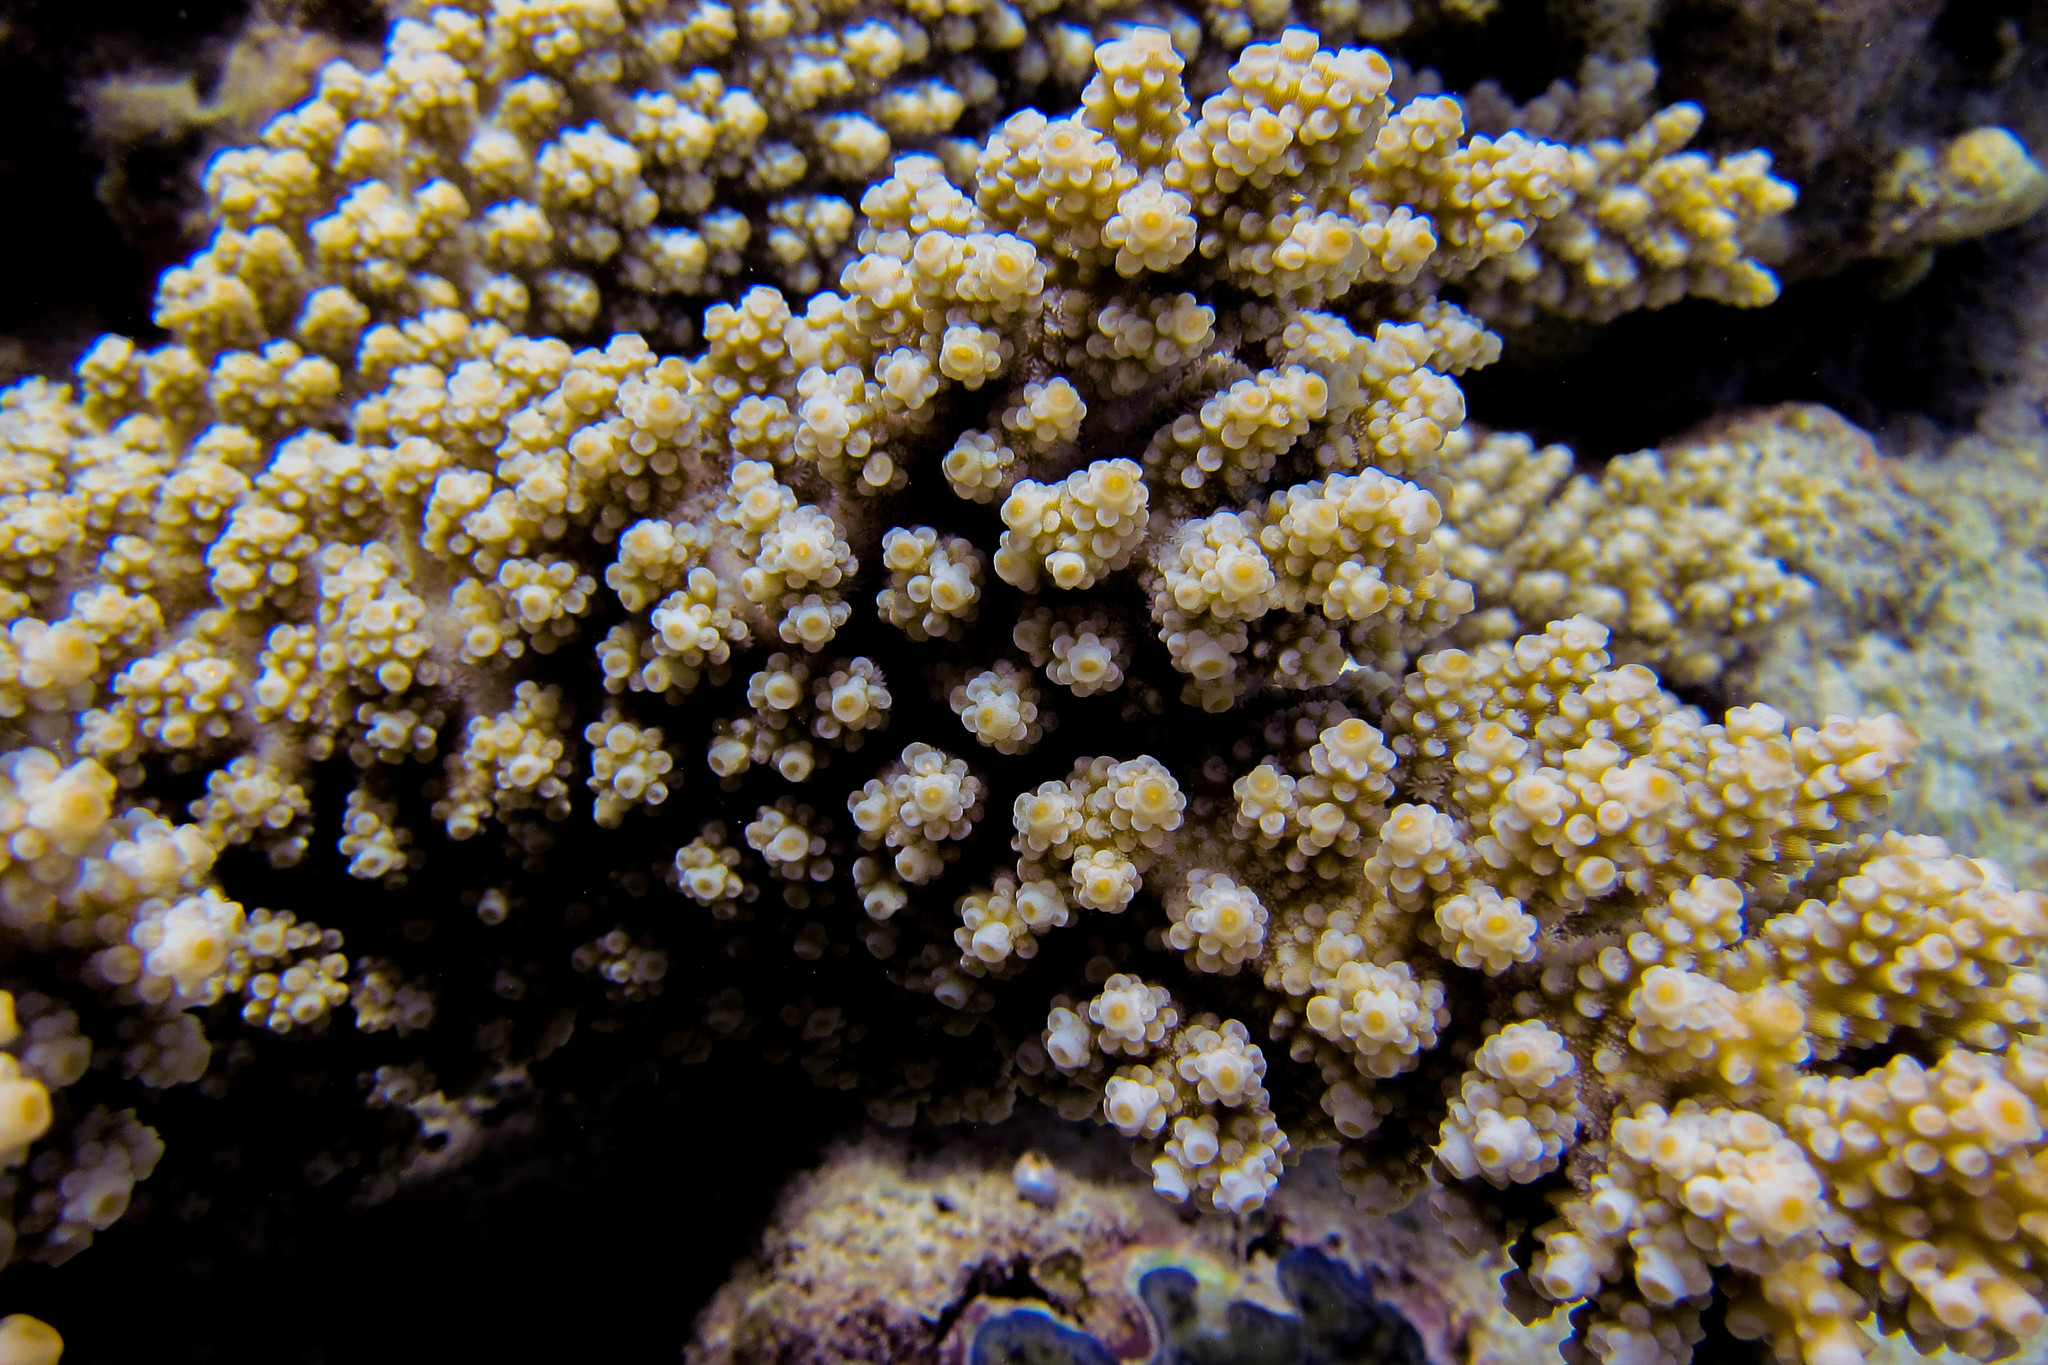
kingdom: Animalia
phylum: Cnidaria
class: Anthozoa
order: Scleractinia
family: Acroporidae
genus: Acropora
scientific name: Acropora florida
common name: Branch coral
